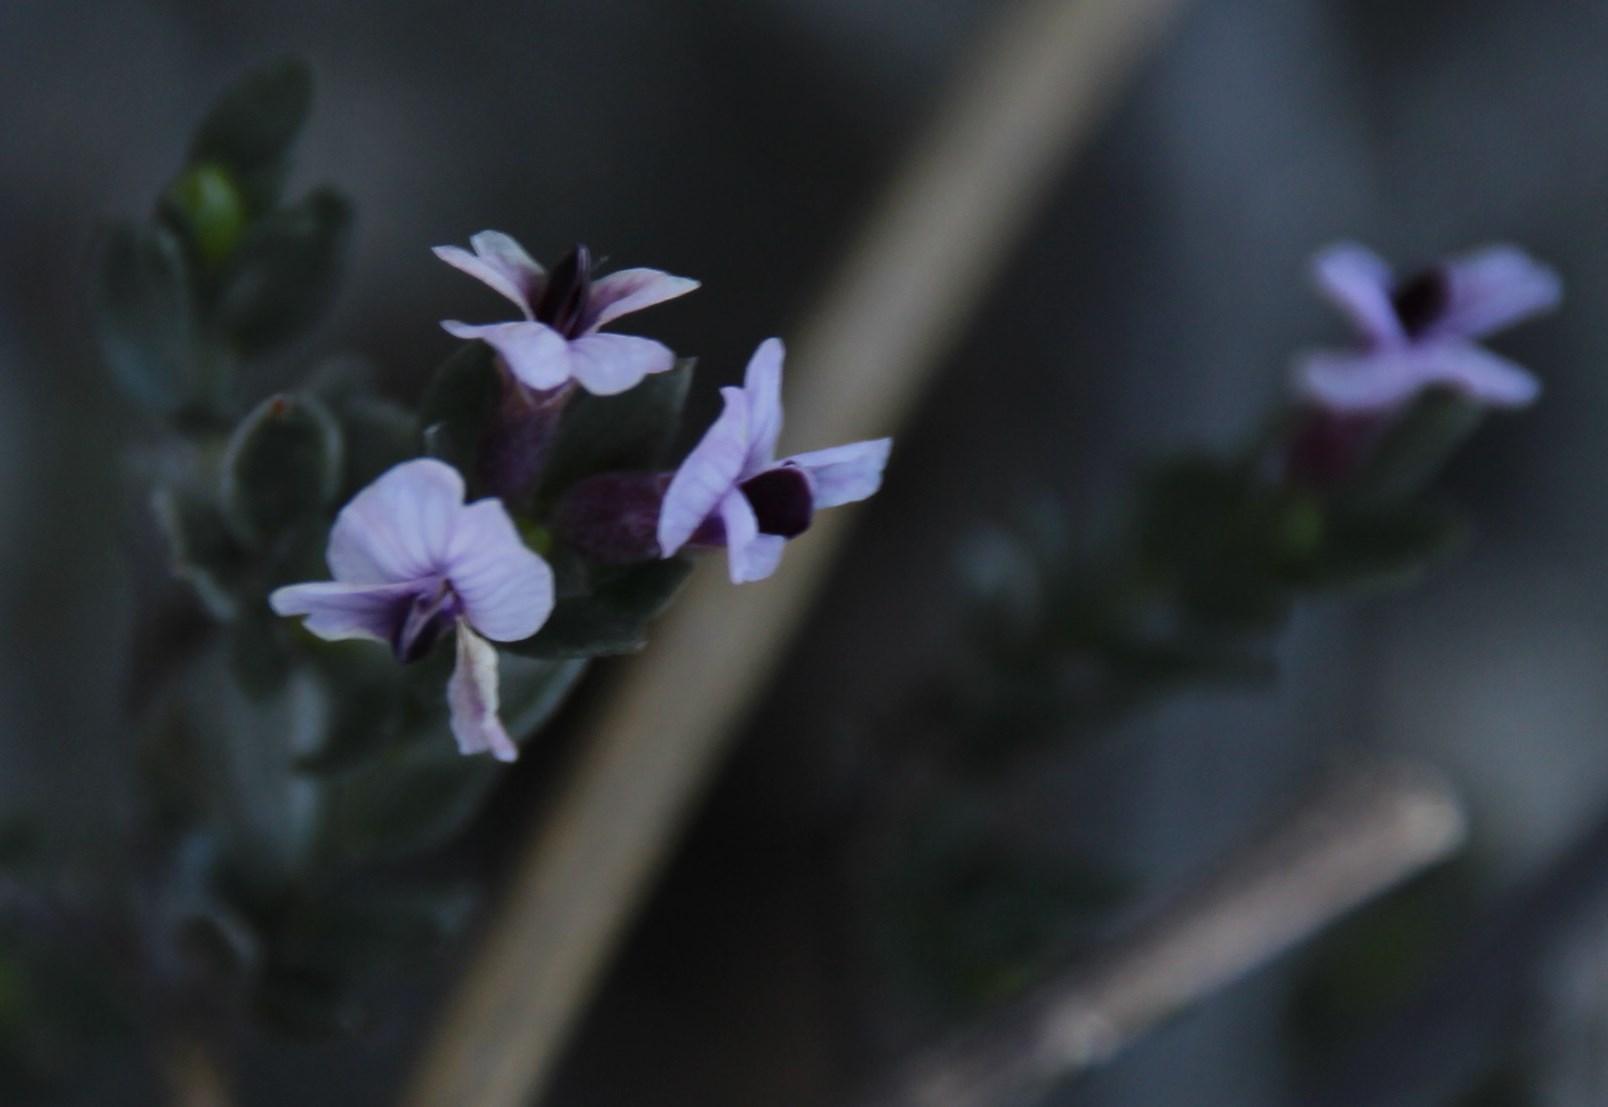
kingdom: Plantae
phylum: Tracheophyta
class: Magnoliopsida
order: Fabales
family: Fabaceae
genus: Amphithalea
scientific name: Amphithalea violacea
